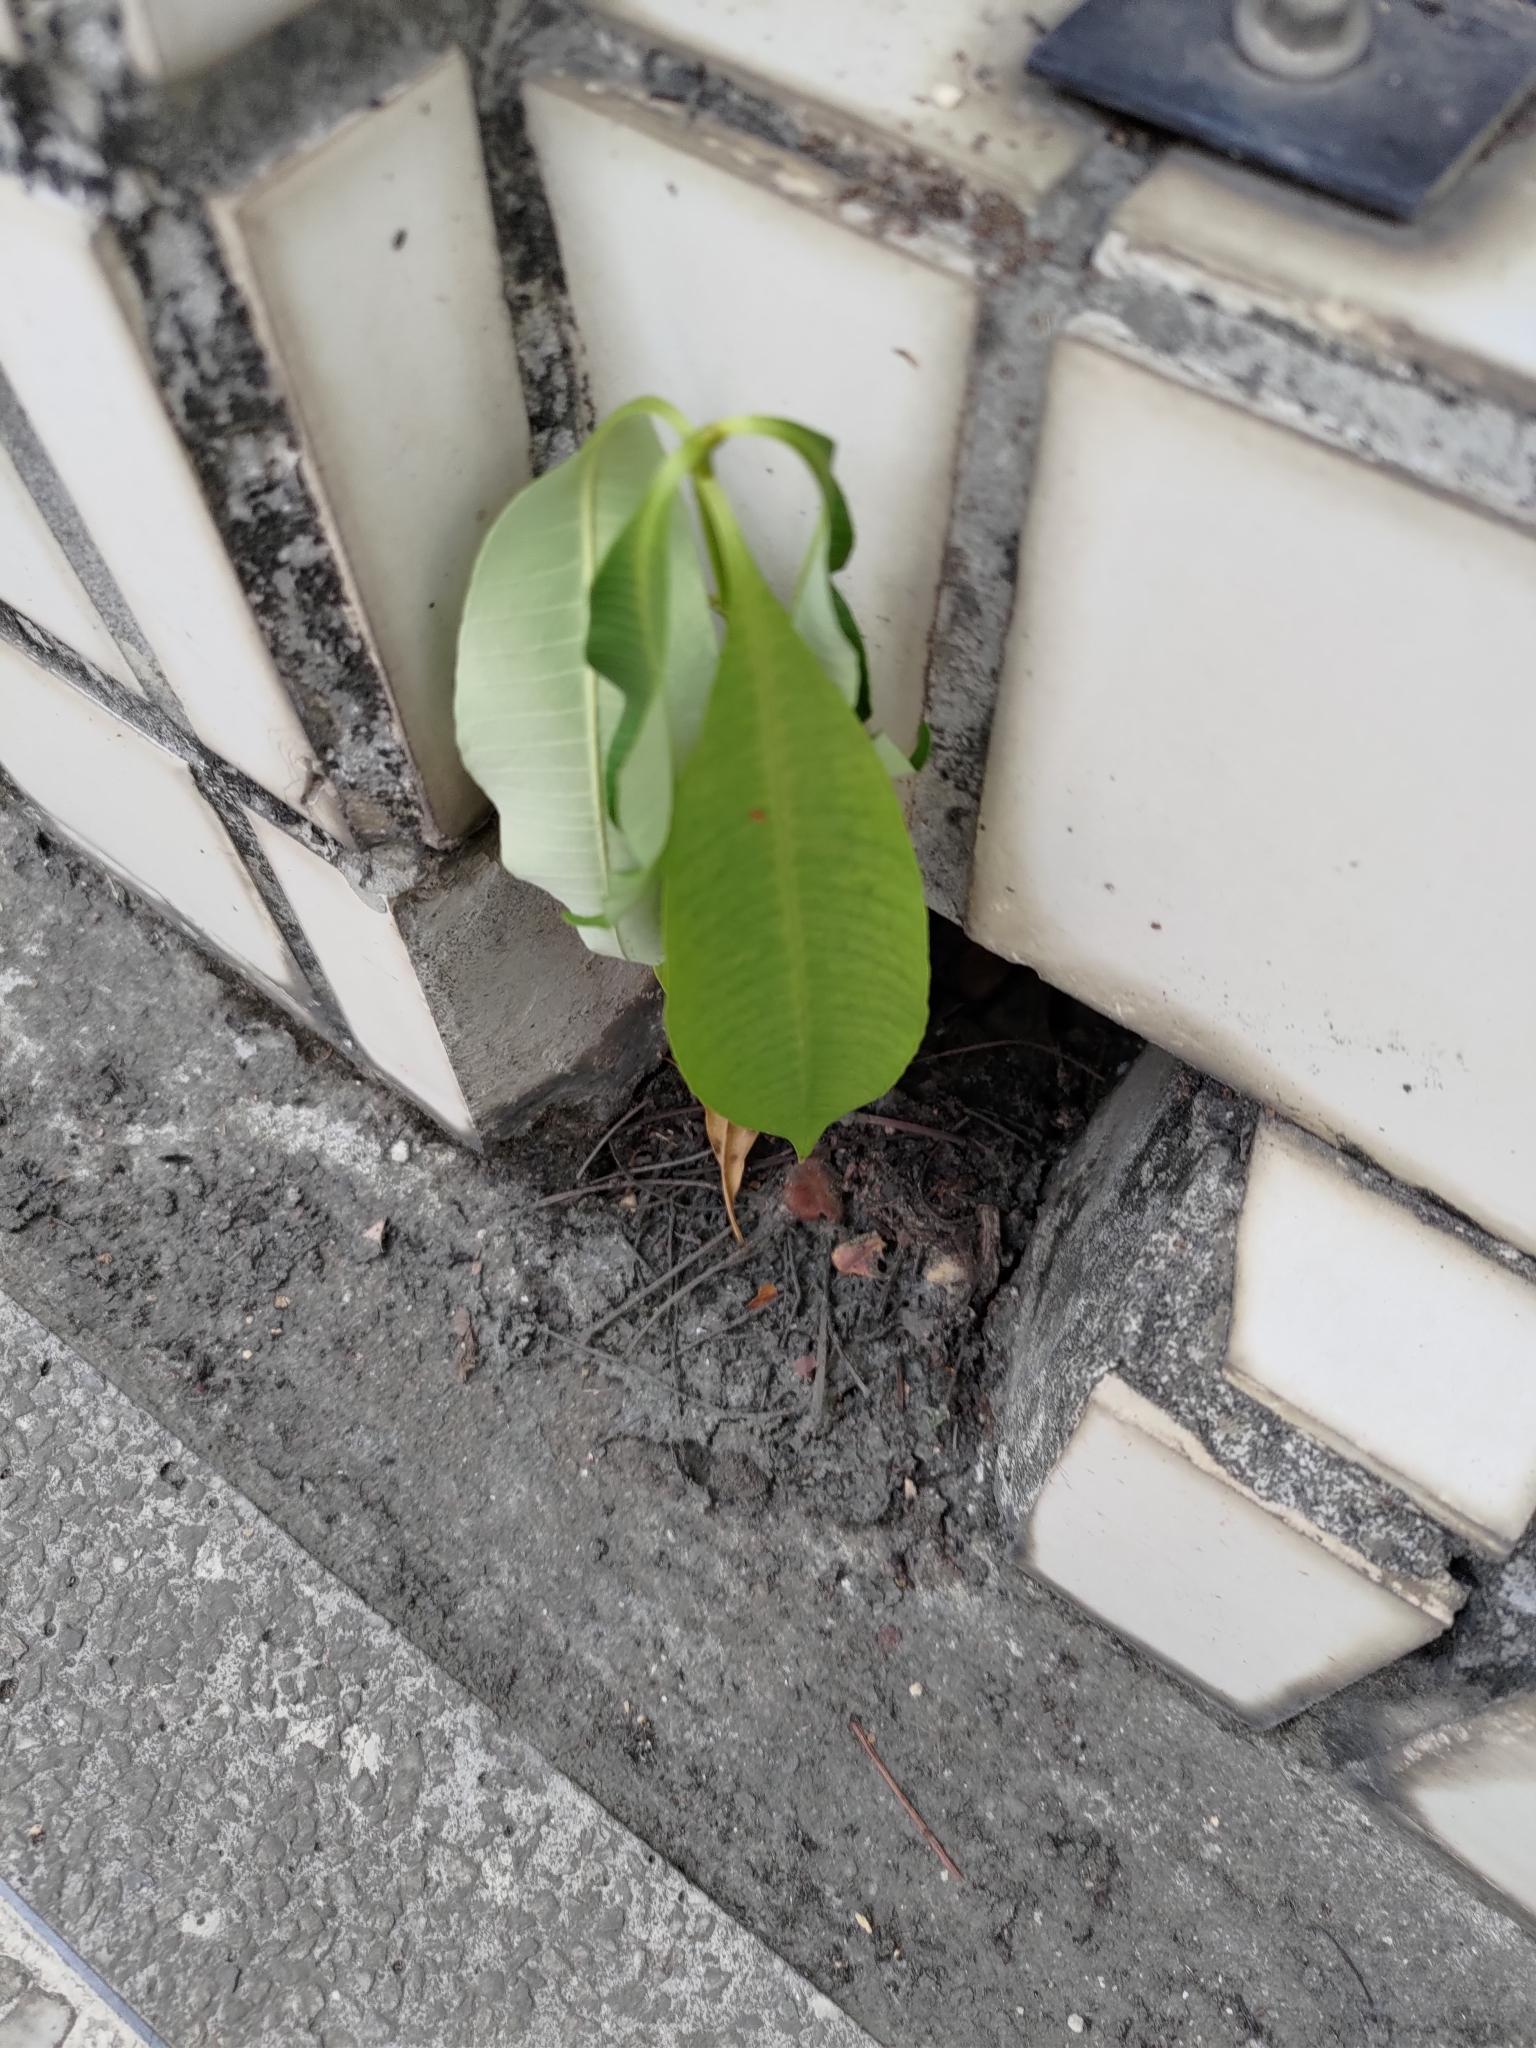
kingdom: Plantae
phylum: Tracheophyta
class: Magnoliopsida
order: Gentianales
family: Apocynaceae
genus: Alstonia
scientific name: Alstonia scholaris
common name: White cheesewood
